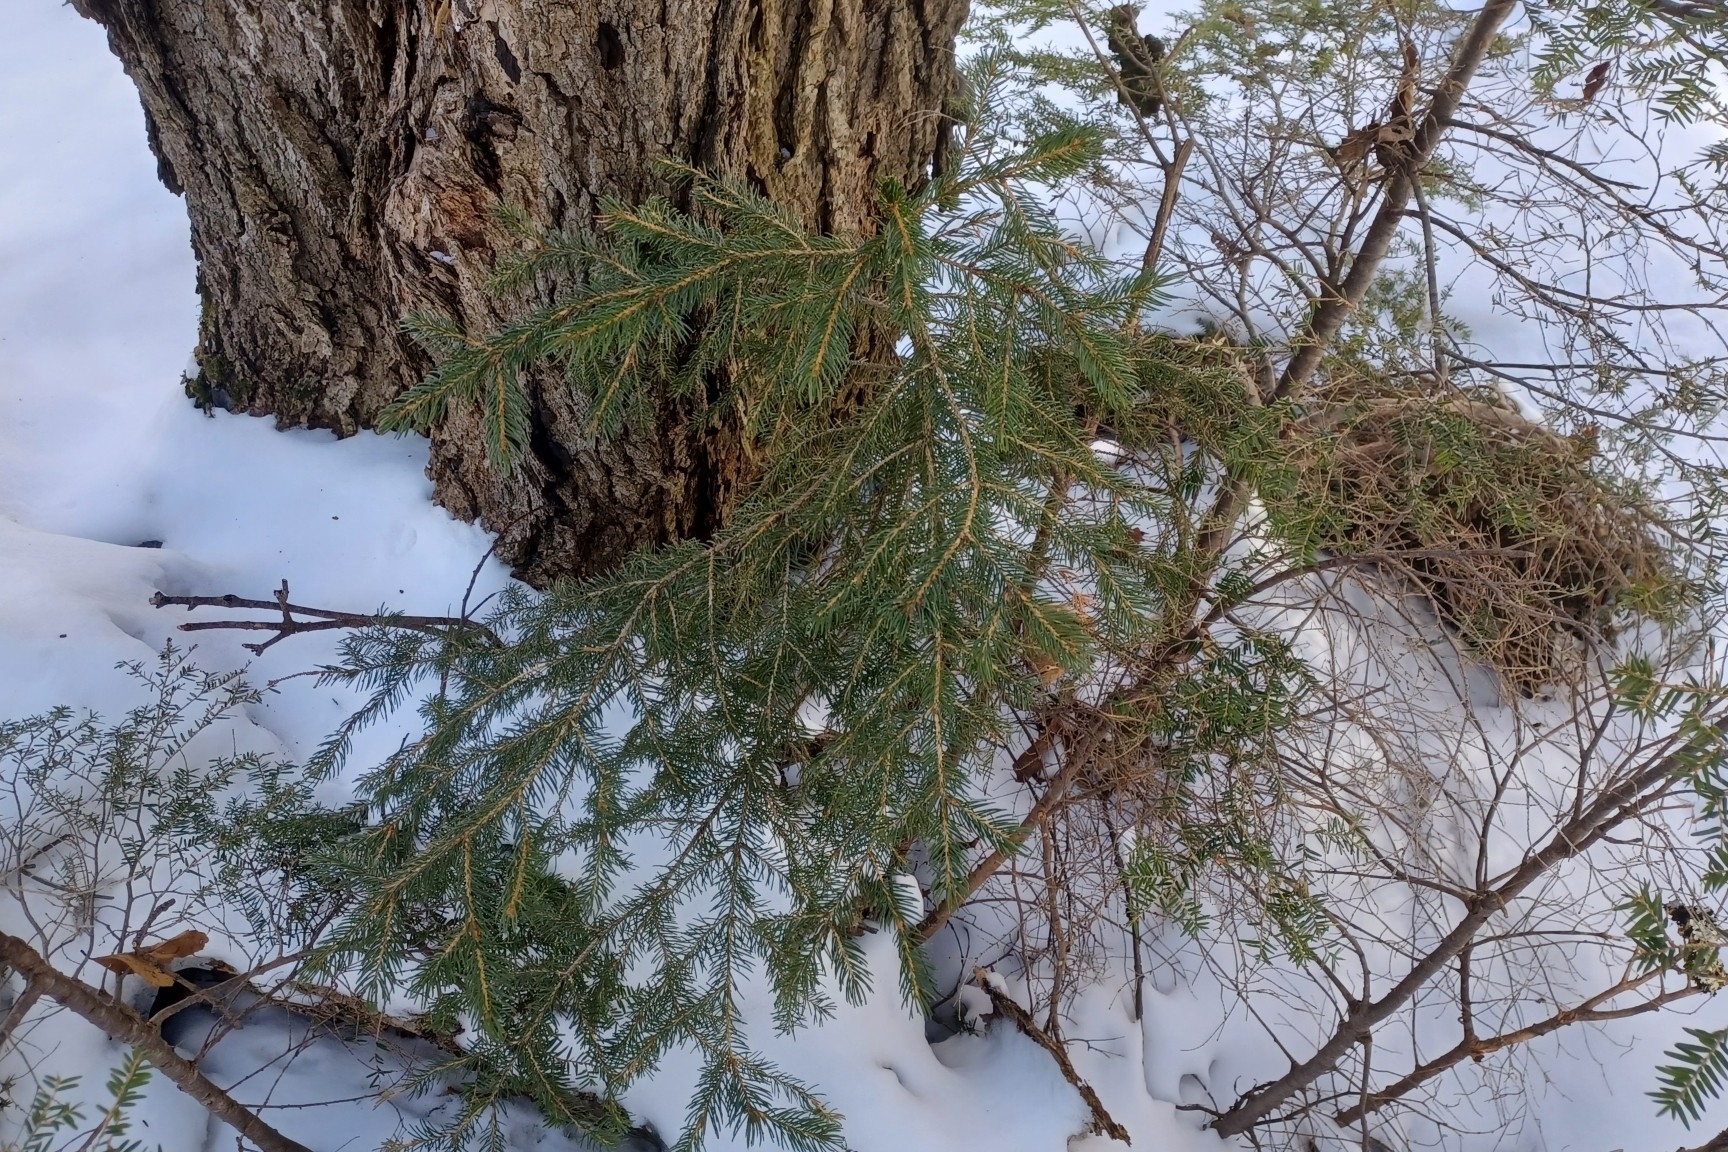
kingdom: Plantae
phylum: Tracheophyta
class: Pinopsida
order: Pinales
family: Pinaceae
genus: Picea
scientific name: Picea rubens
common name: Red spruce
